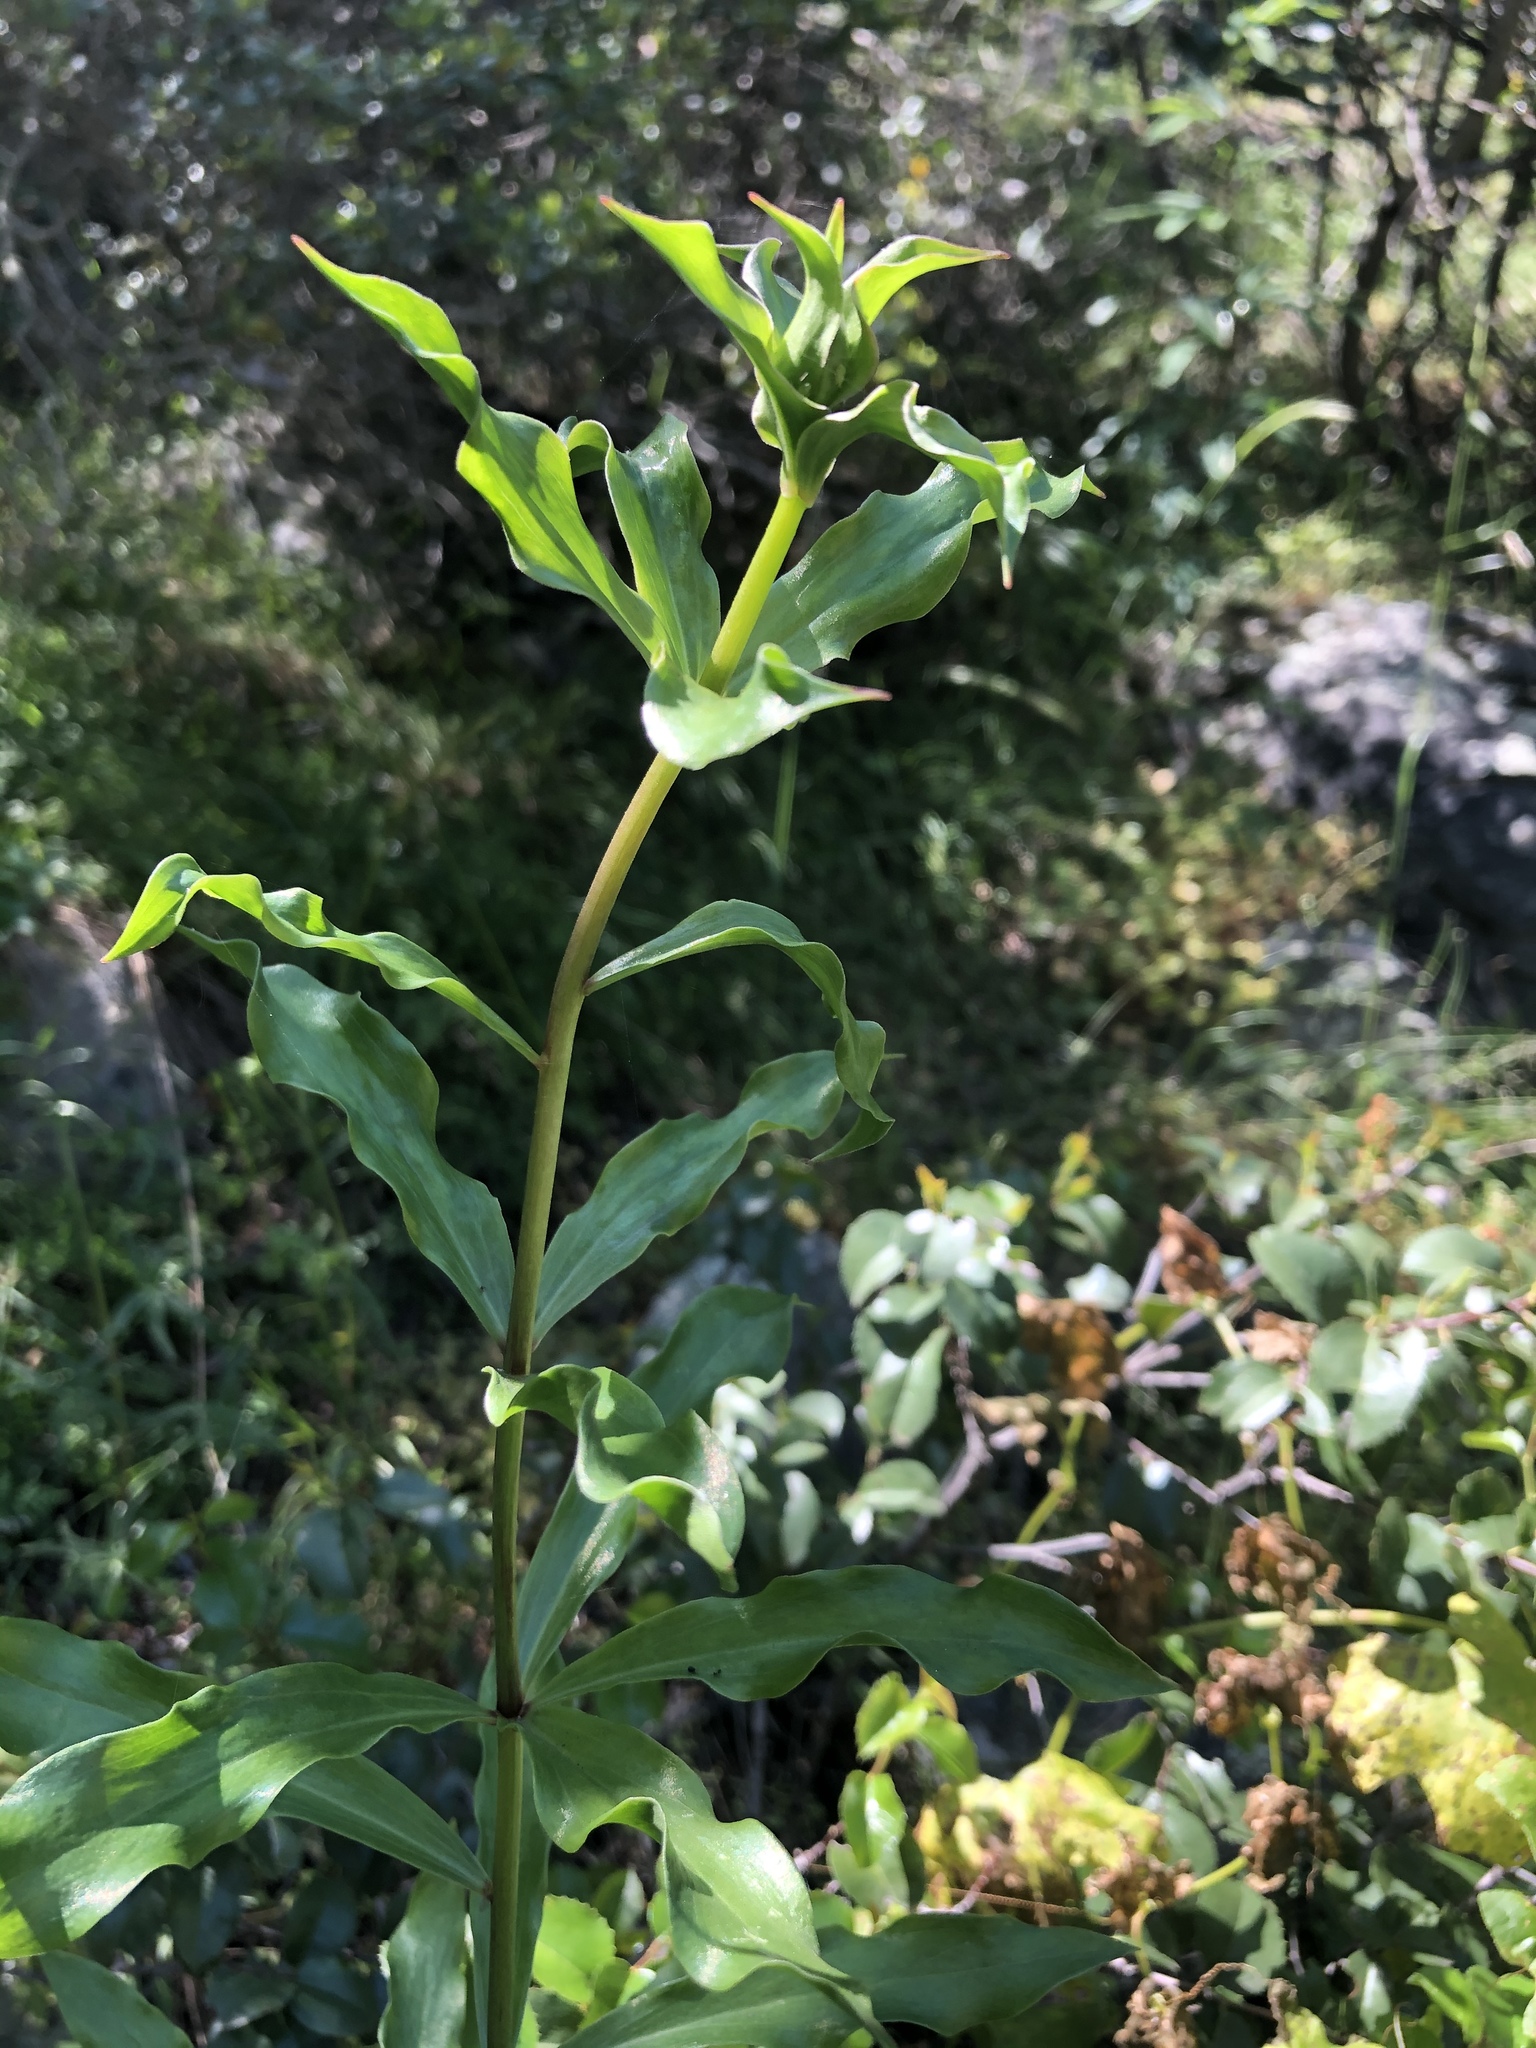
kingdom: Plantae
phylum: Tracheophyta
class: Liliopsida
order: Liliales
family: Liliaceae
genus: Lilium
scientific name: Lilium humboldtii
